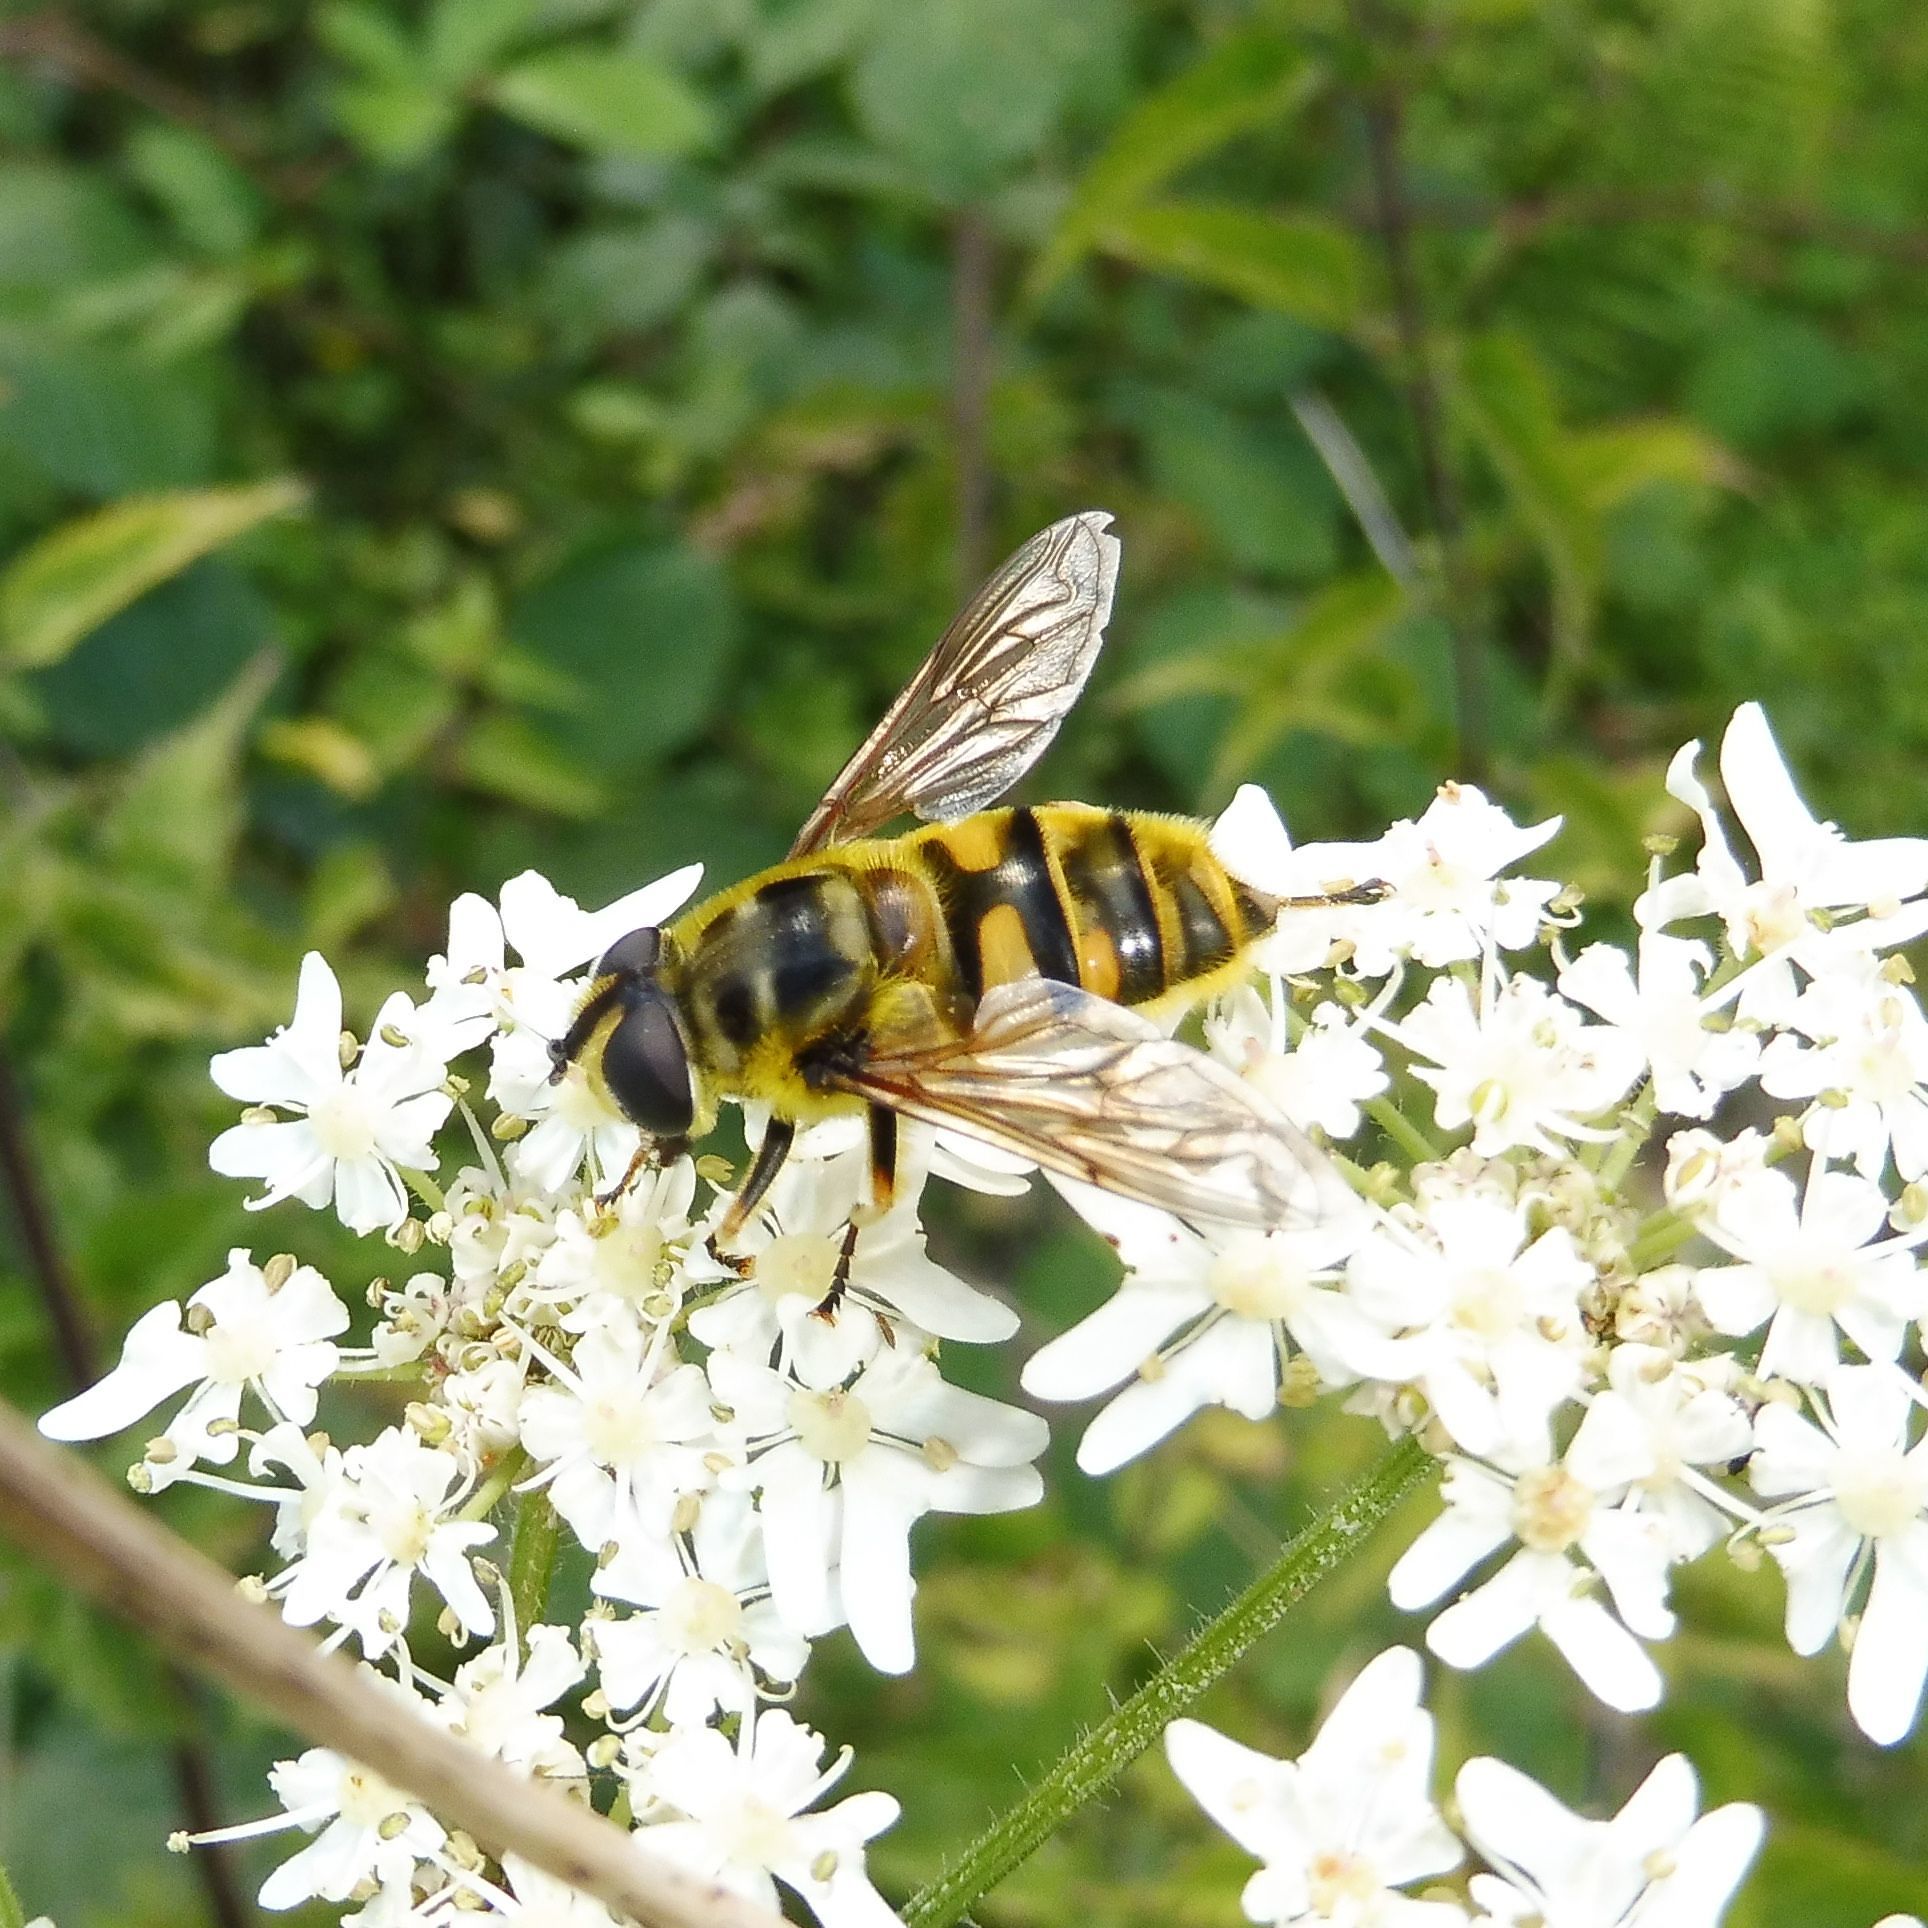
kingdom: Animalia
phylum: Arthropoda
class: Insecta
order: Diptera
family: Syrphidae
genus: Myathropa
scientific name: Myathropa florea
